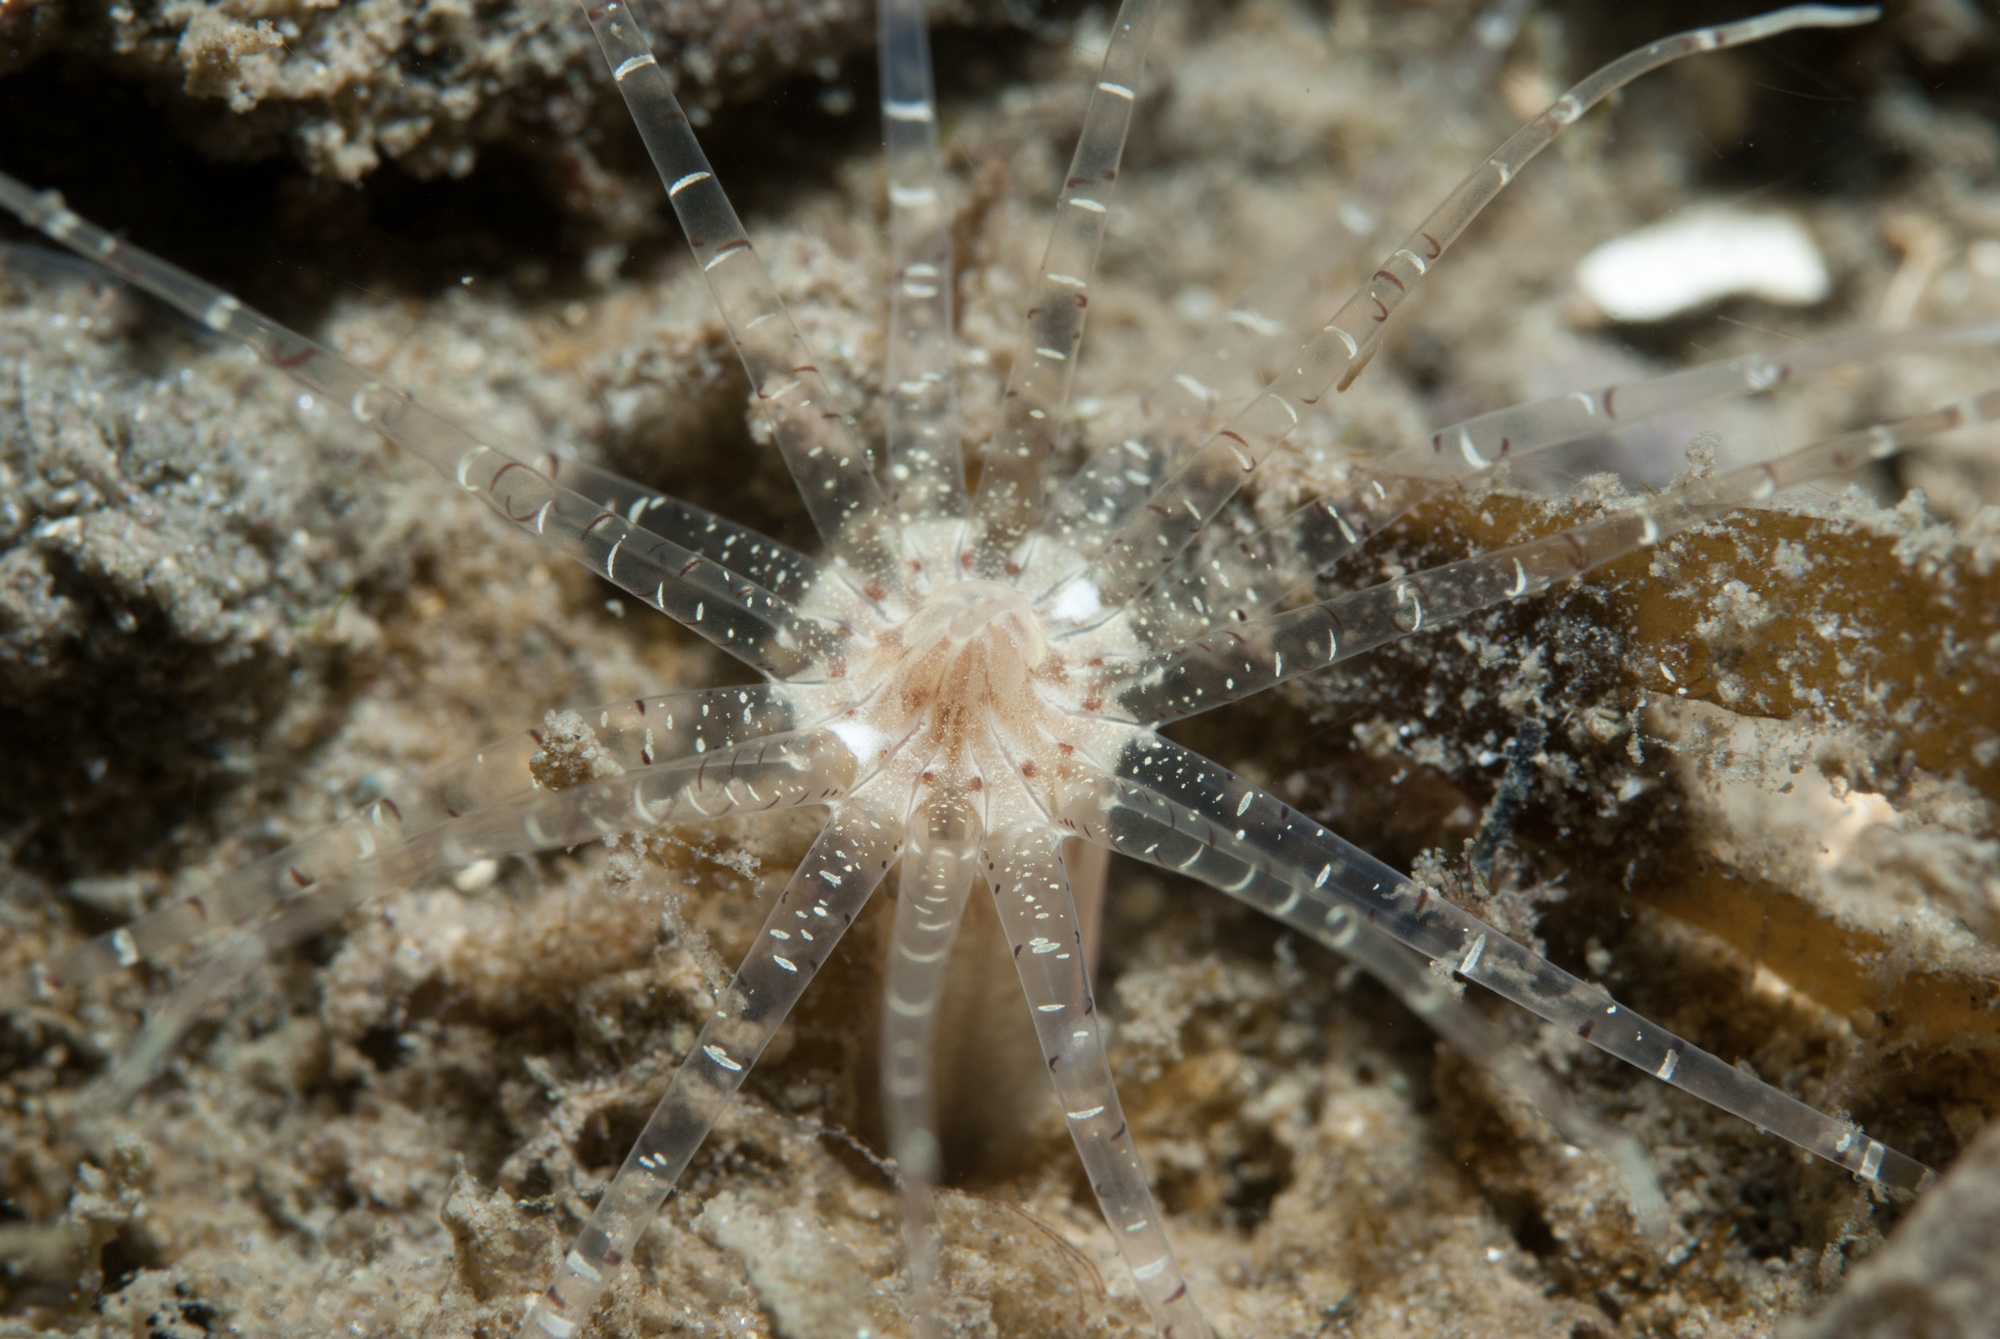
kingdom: Animalia
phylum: Cnidaria
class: Anthozoa
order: Actiniaria
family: Edwardsiidae
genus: Edwardsia
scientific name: Edwardsia claparedii
